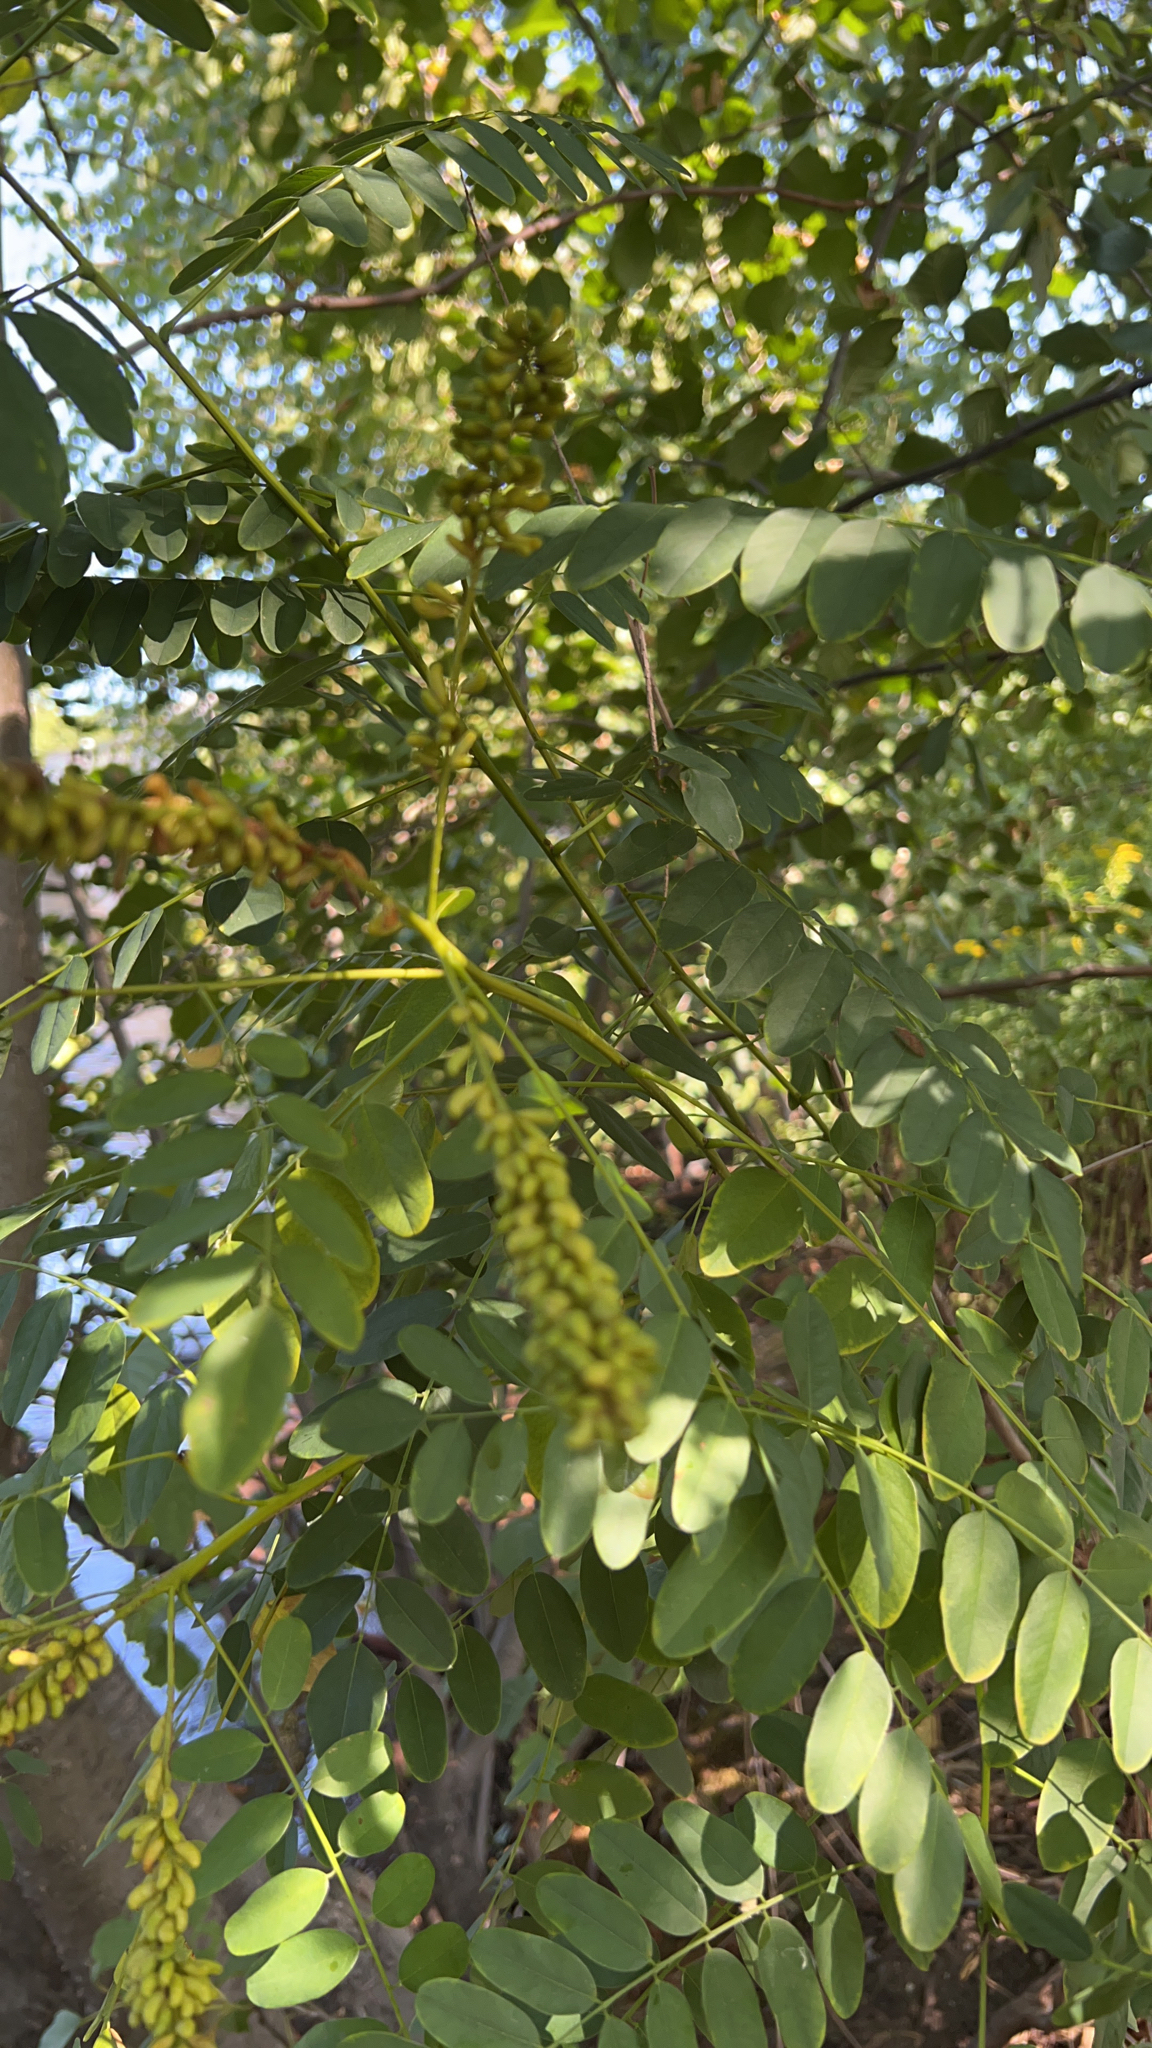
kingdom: Plantae
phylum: Tracheophyta
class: Magnoliopsida
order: Fabales
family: Fabaceae
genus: Amorpha
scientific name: Amorpha fruticosa
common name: False indigo
